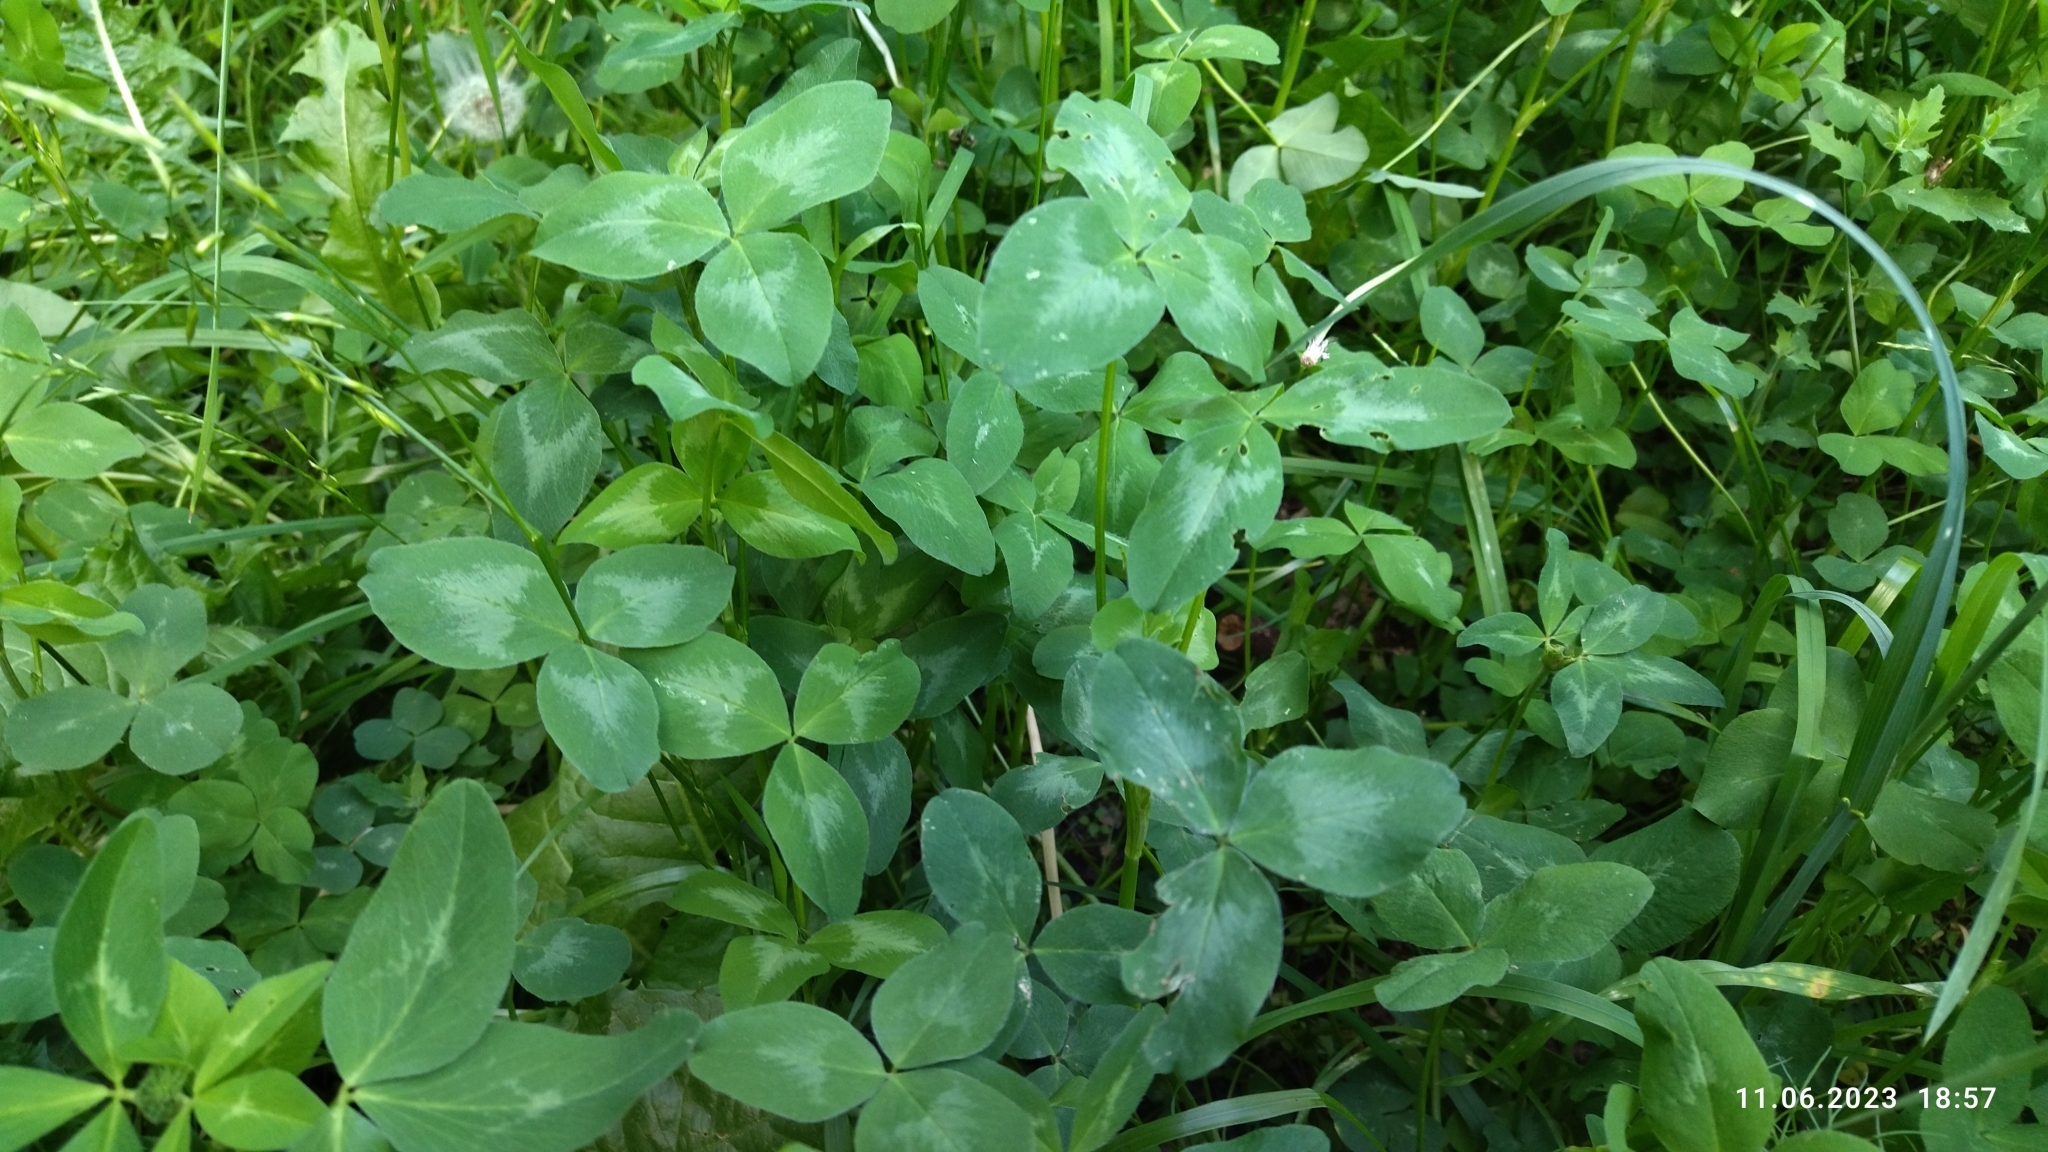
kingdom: Plantae
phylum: Tracheophyta
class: Magnoliopsida
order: Fabales
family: Fabaceae
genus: Trifolium
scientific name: Trifolium pratense
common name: Red clover
